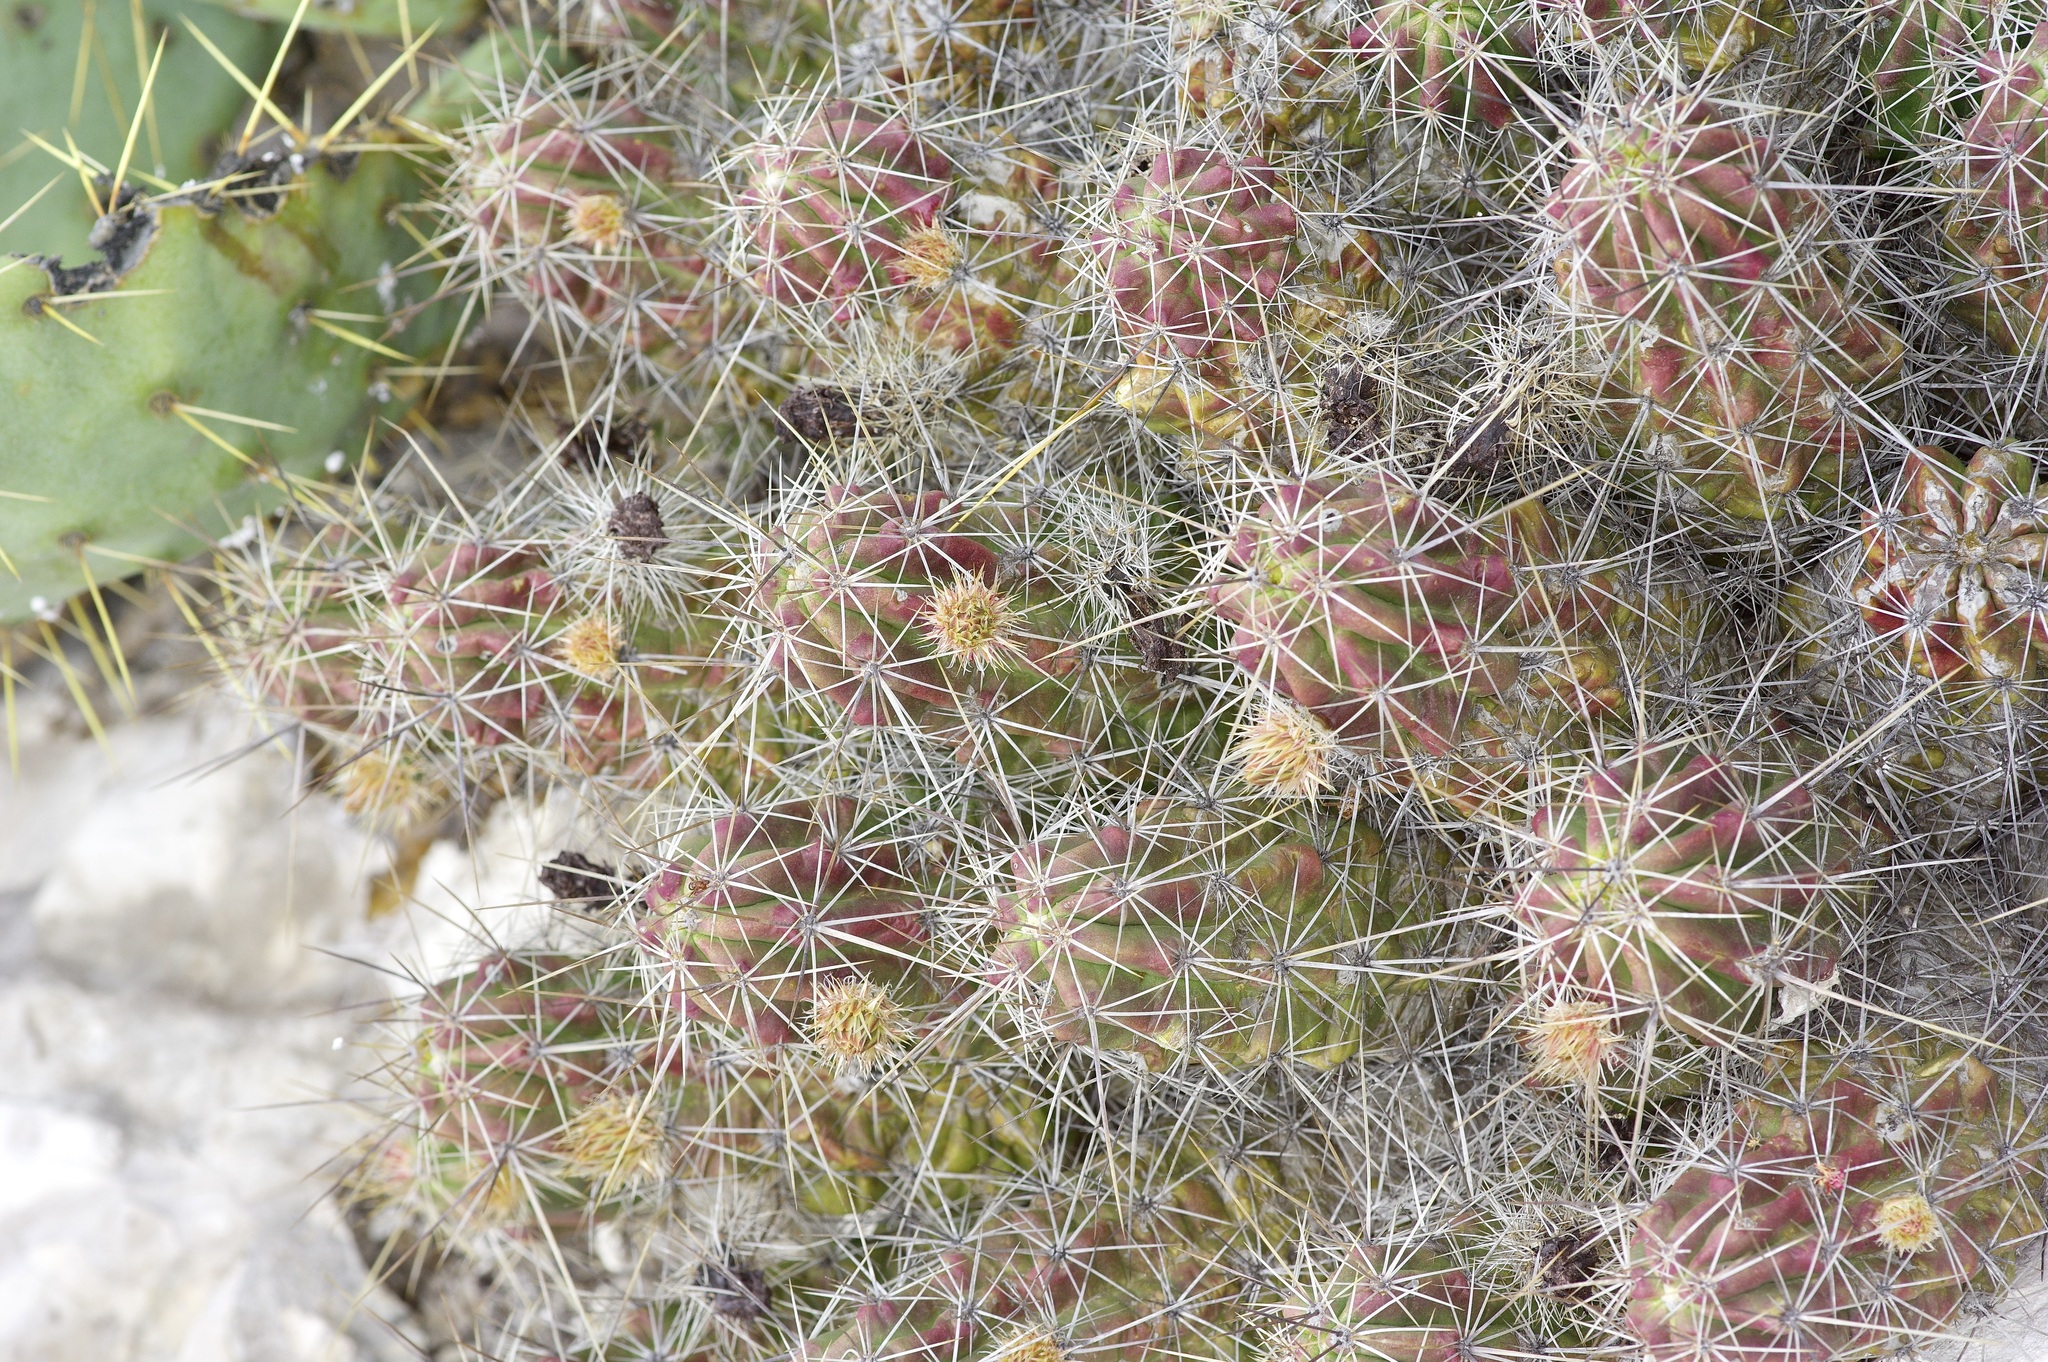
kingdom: Plantae
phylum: Tracheophyta
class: Magnoliopsida
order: Caryophyllales
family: Cactaceae
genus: Echinocereus
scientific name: Echinocereus enneacanthus
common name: Pitaya
